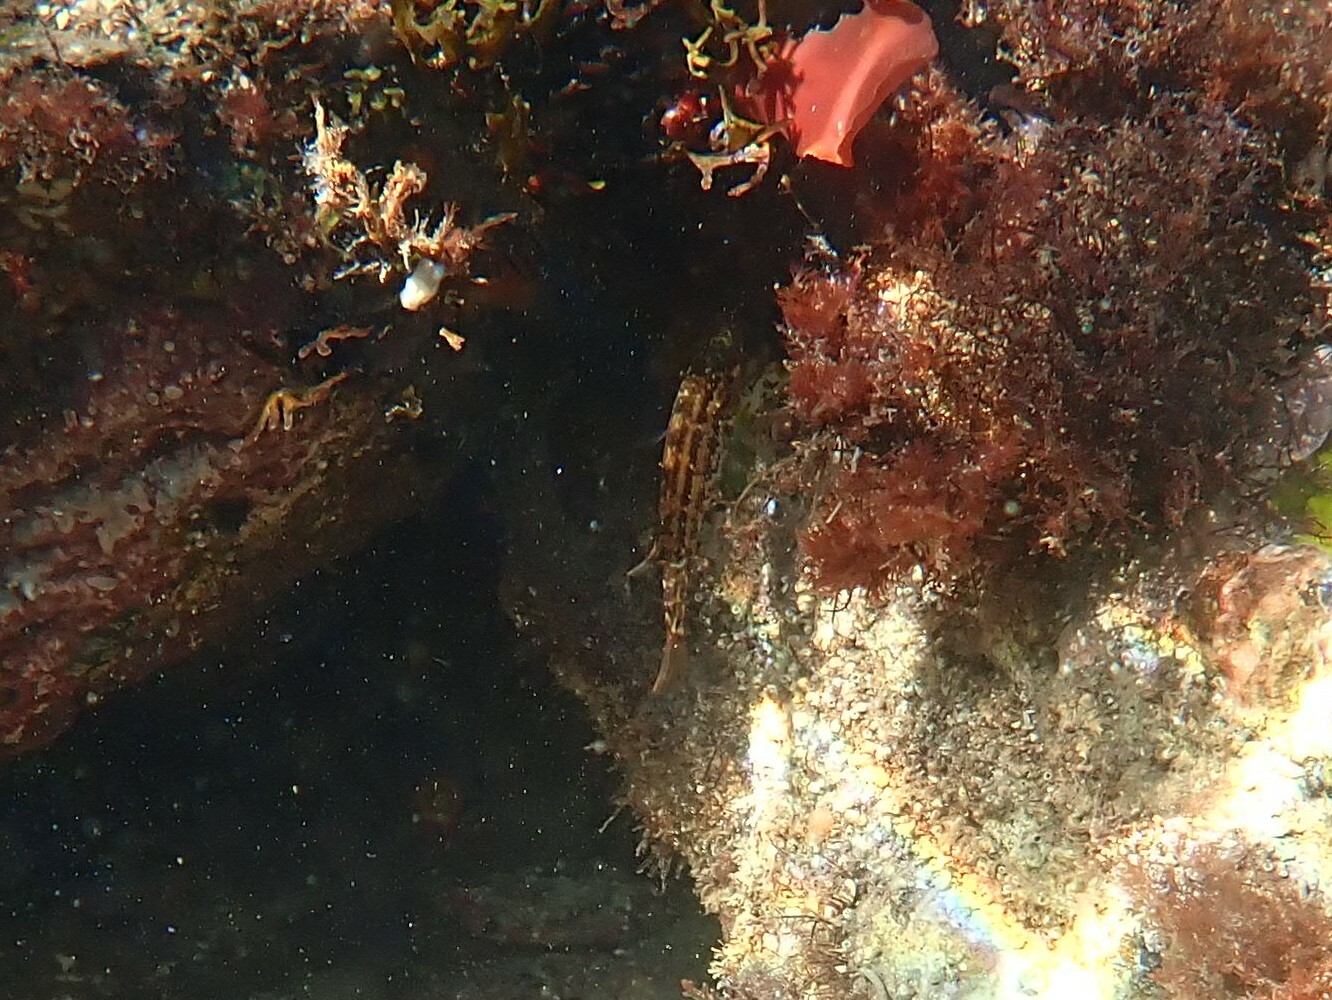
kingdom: Animalia
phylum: Chordata
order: Perciformes
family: Labridae
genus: Symphodus
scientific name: Symphodus melops
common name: Corkwing
